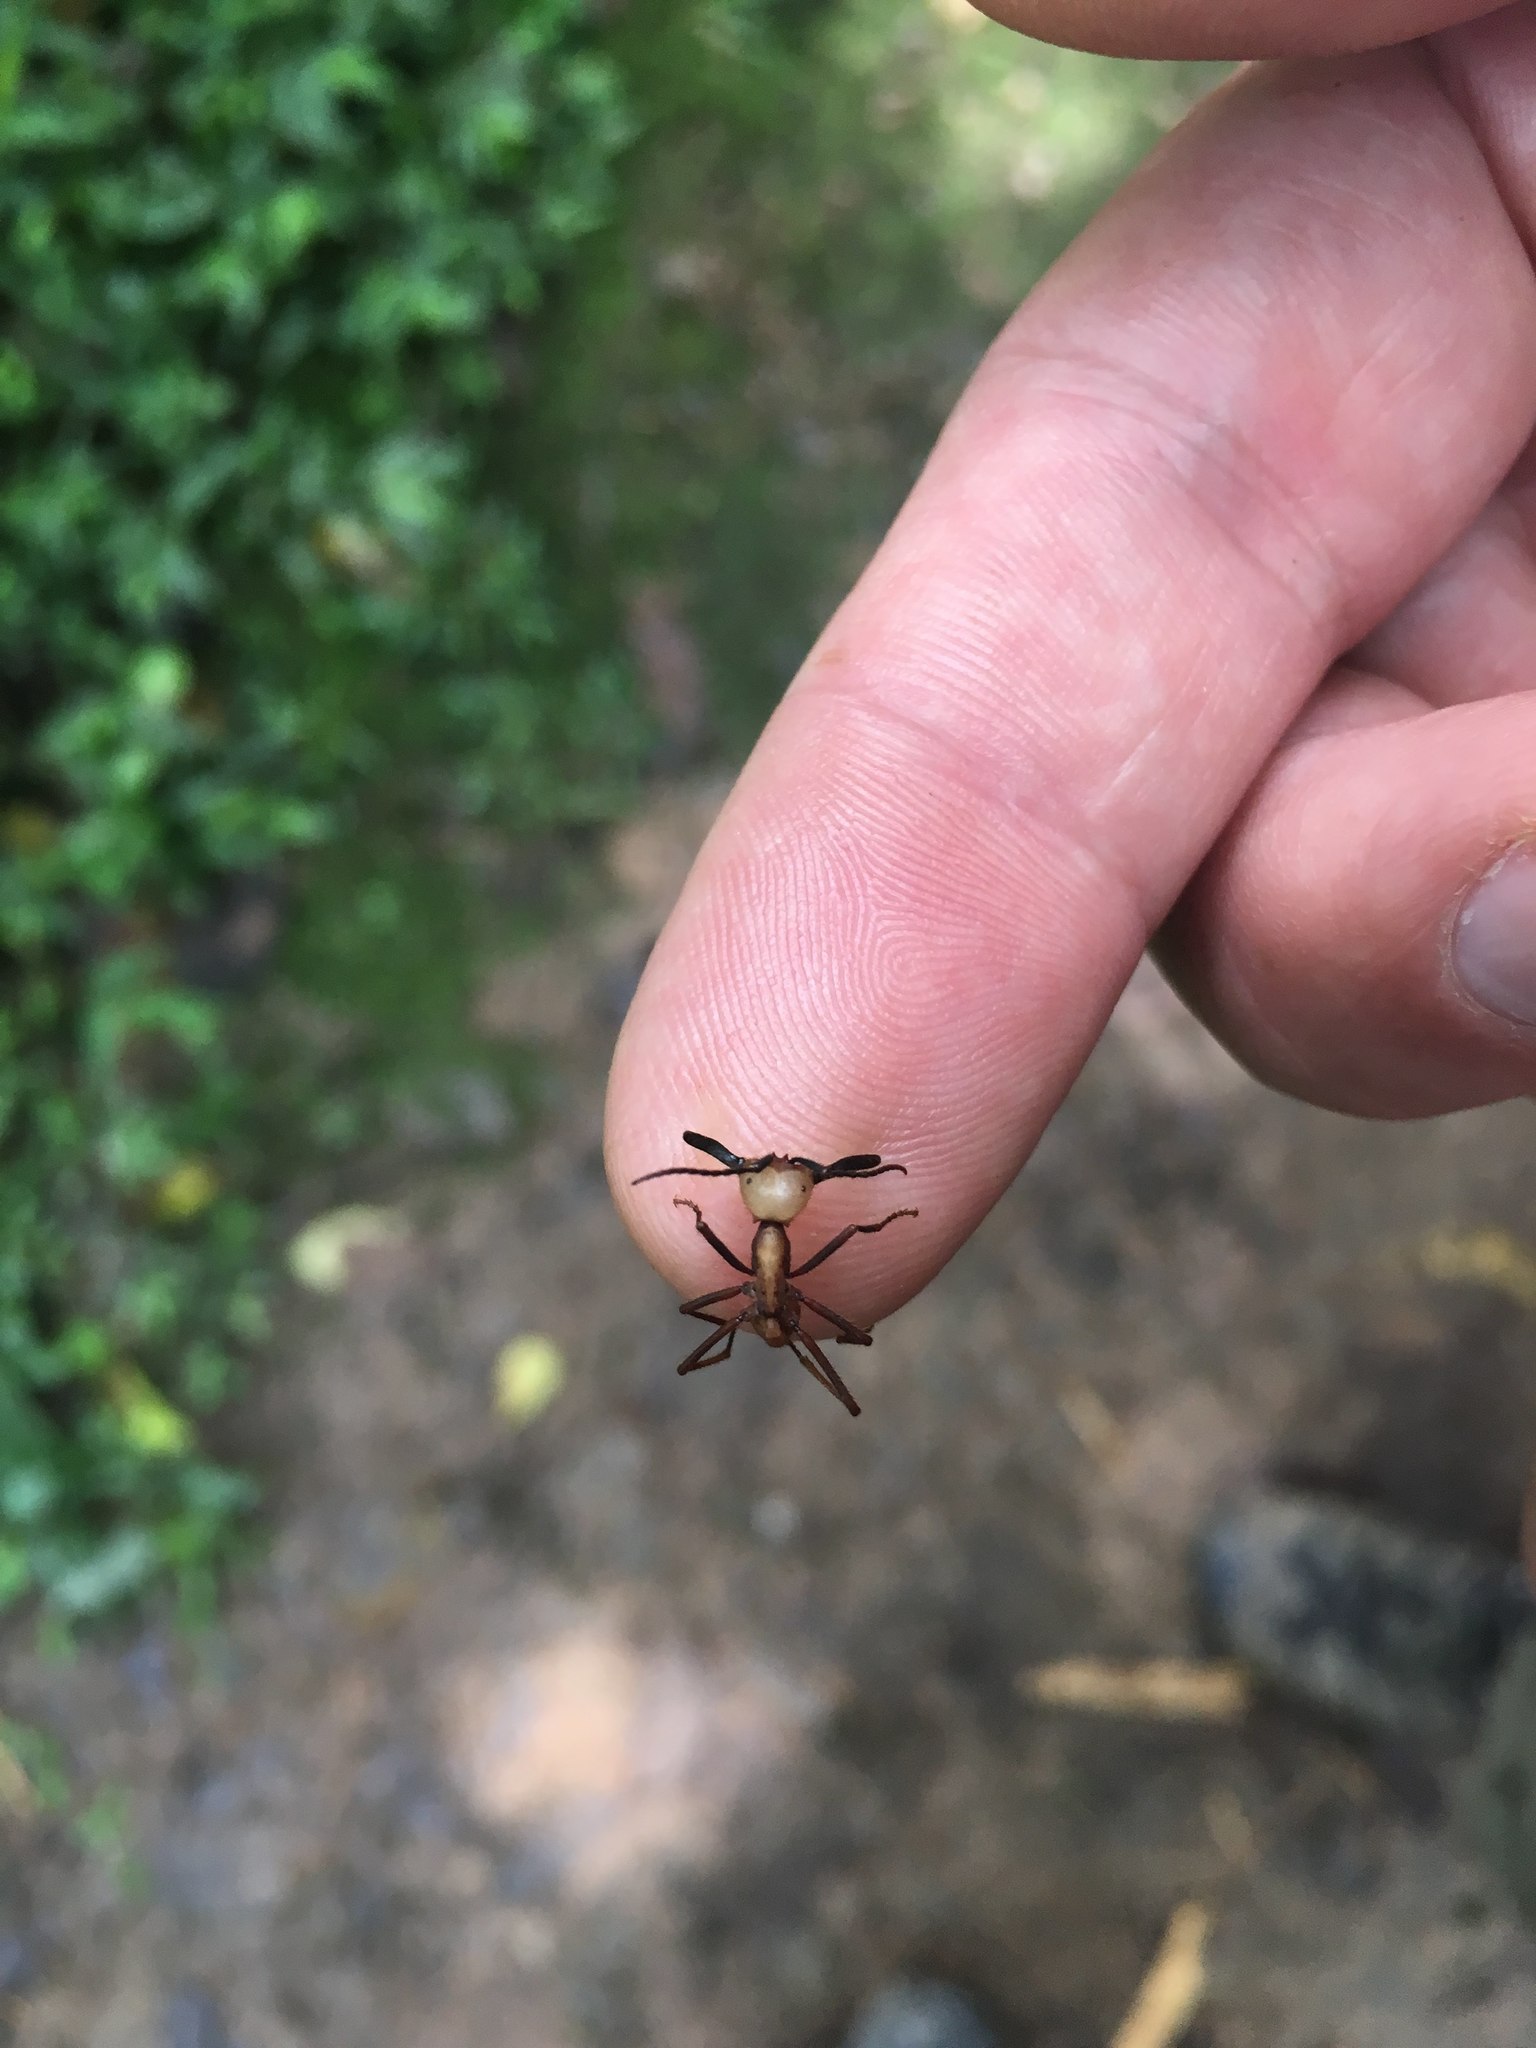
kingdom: Animalia
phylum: Arthropoda
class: Insecta
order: Hymenoptera
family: Formicidae
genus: Eciton
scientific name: Eciton burchellii
